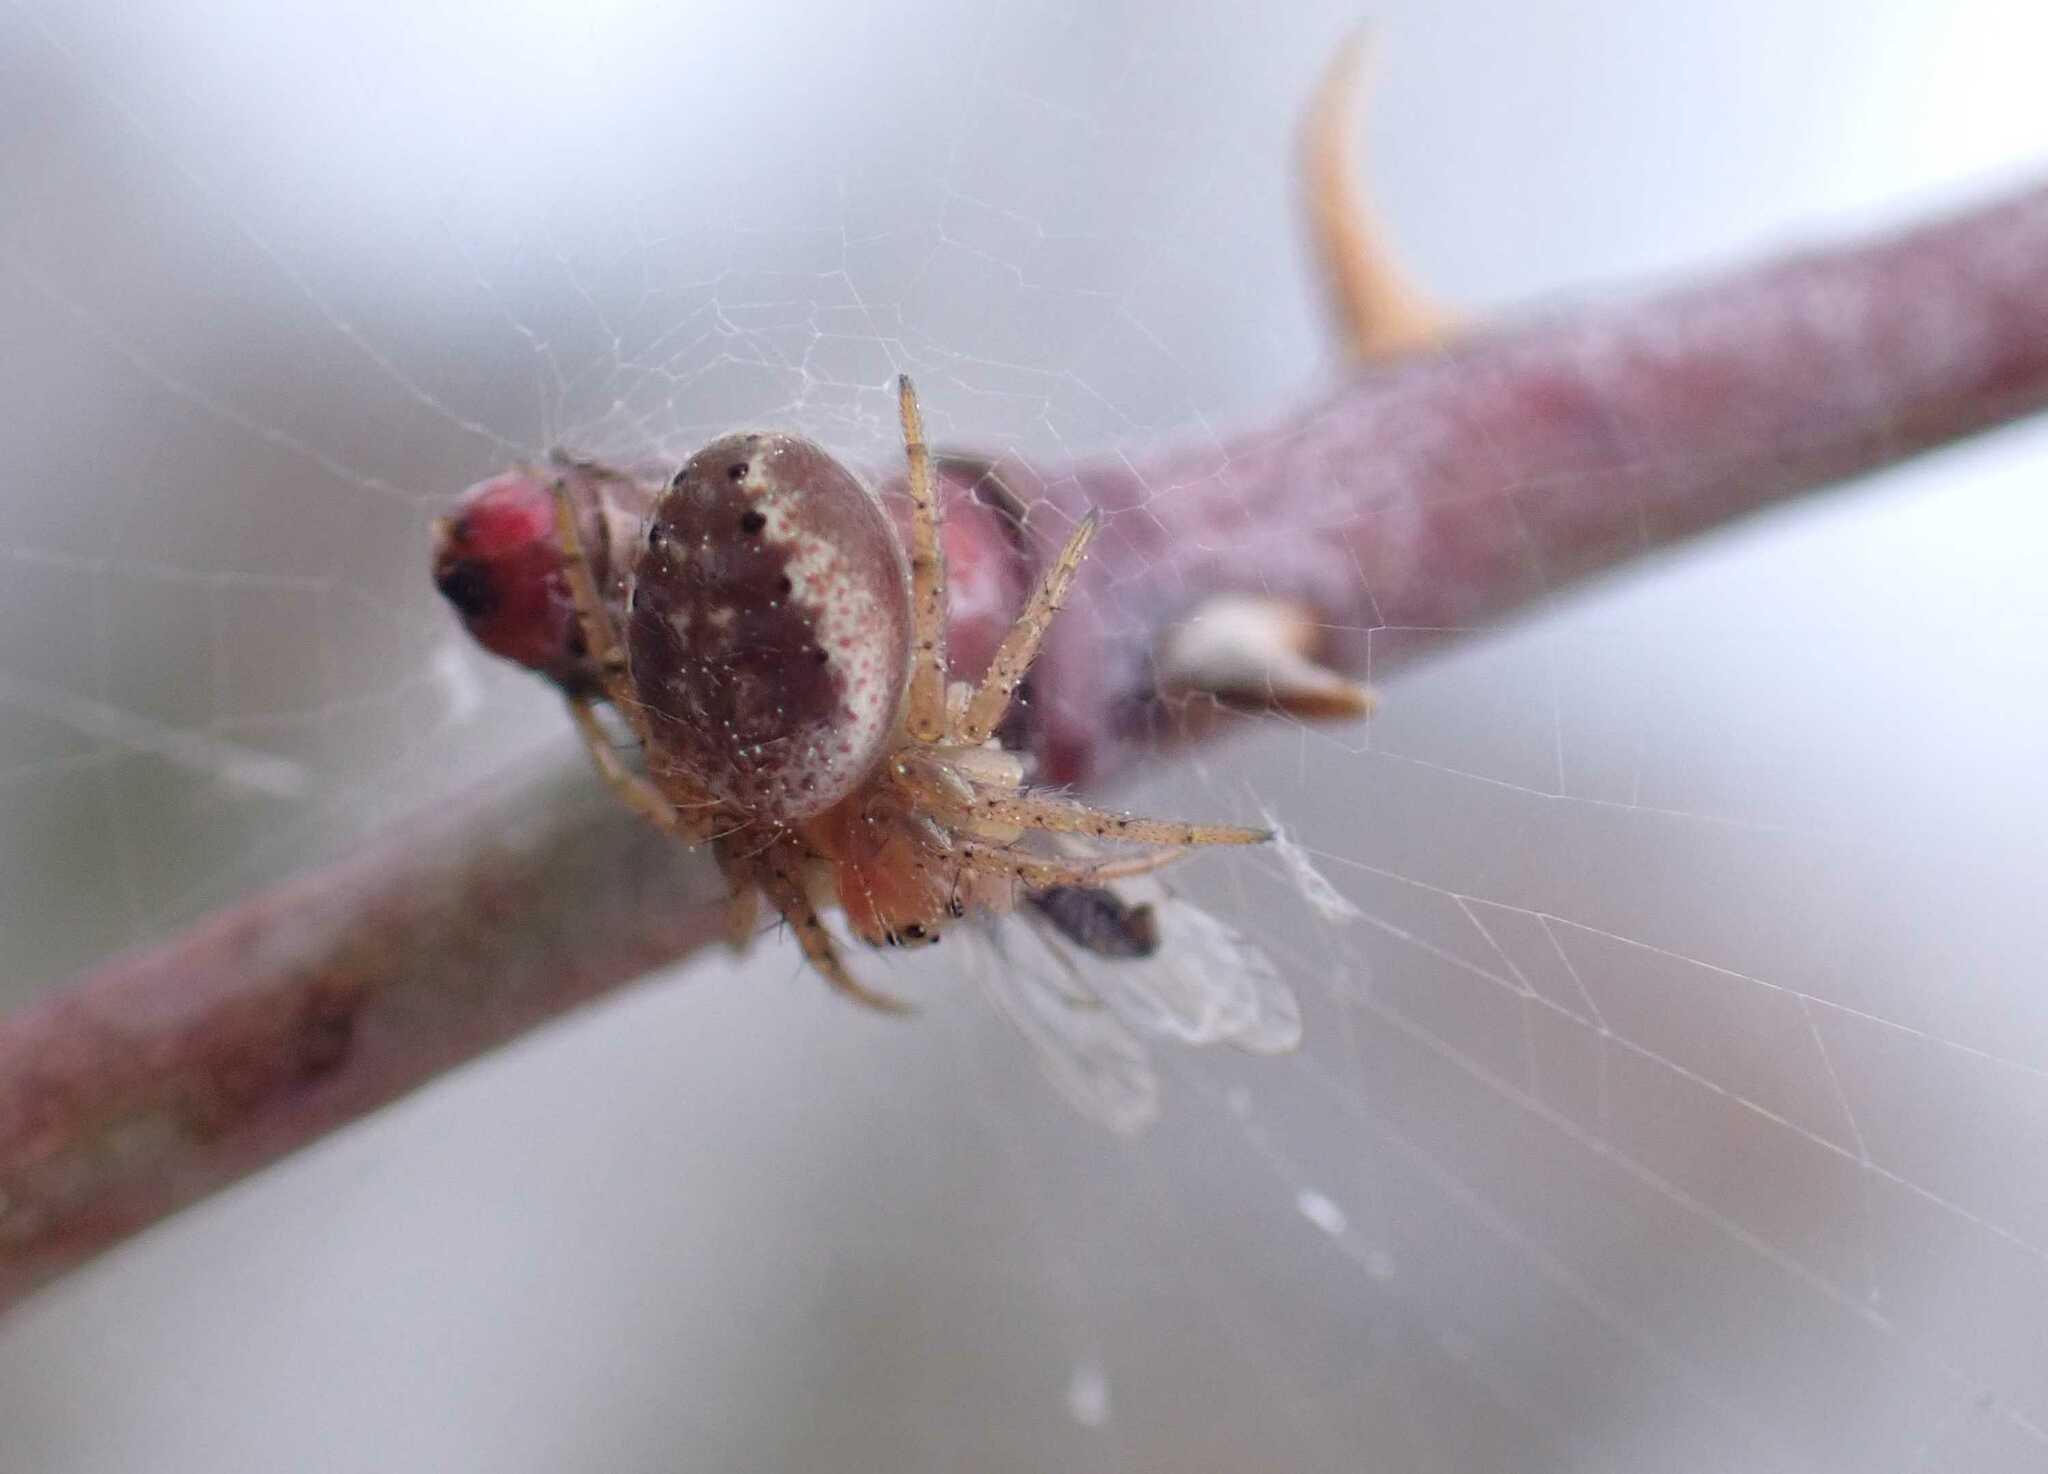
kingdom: Animalia
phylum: Arthropoda
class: Arachnida
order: Araneae
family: Araneidae
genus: Araniella
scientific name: Araniella
